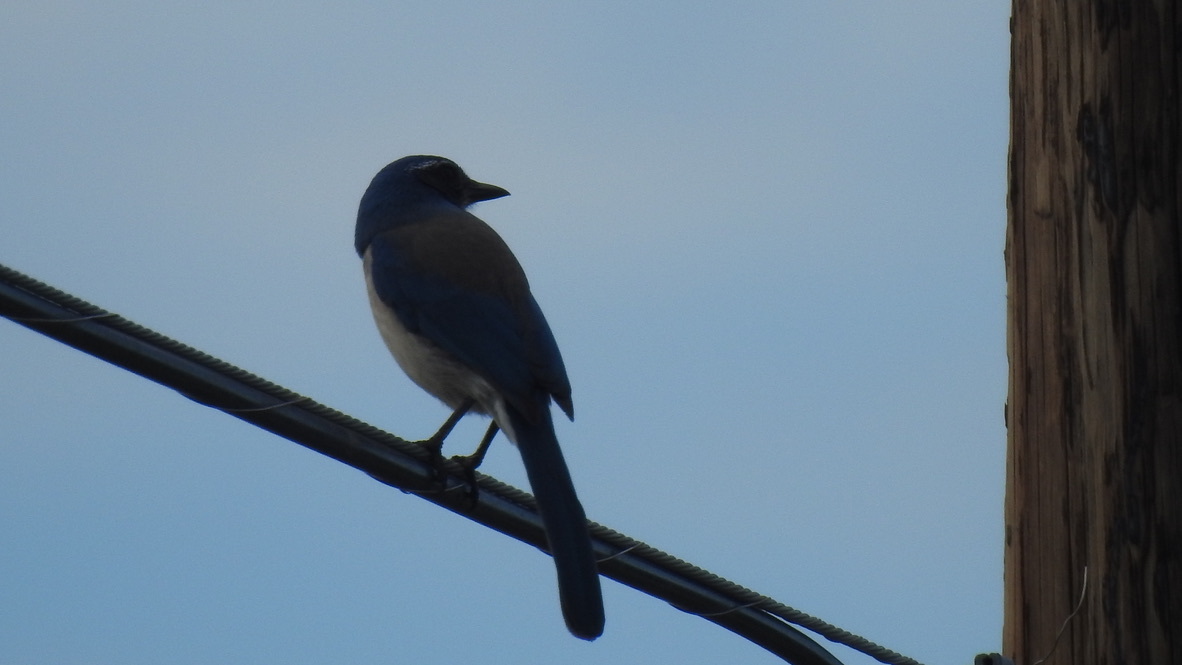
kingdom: Animalia
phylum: Chordata
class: Aves
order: Passeriformes
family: Corvidae
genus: Aphelocoma
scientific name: Aphelocoma californica
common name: California scrub-jay
